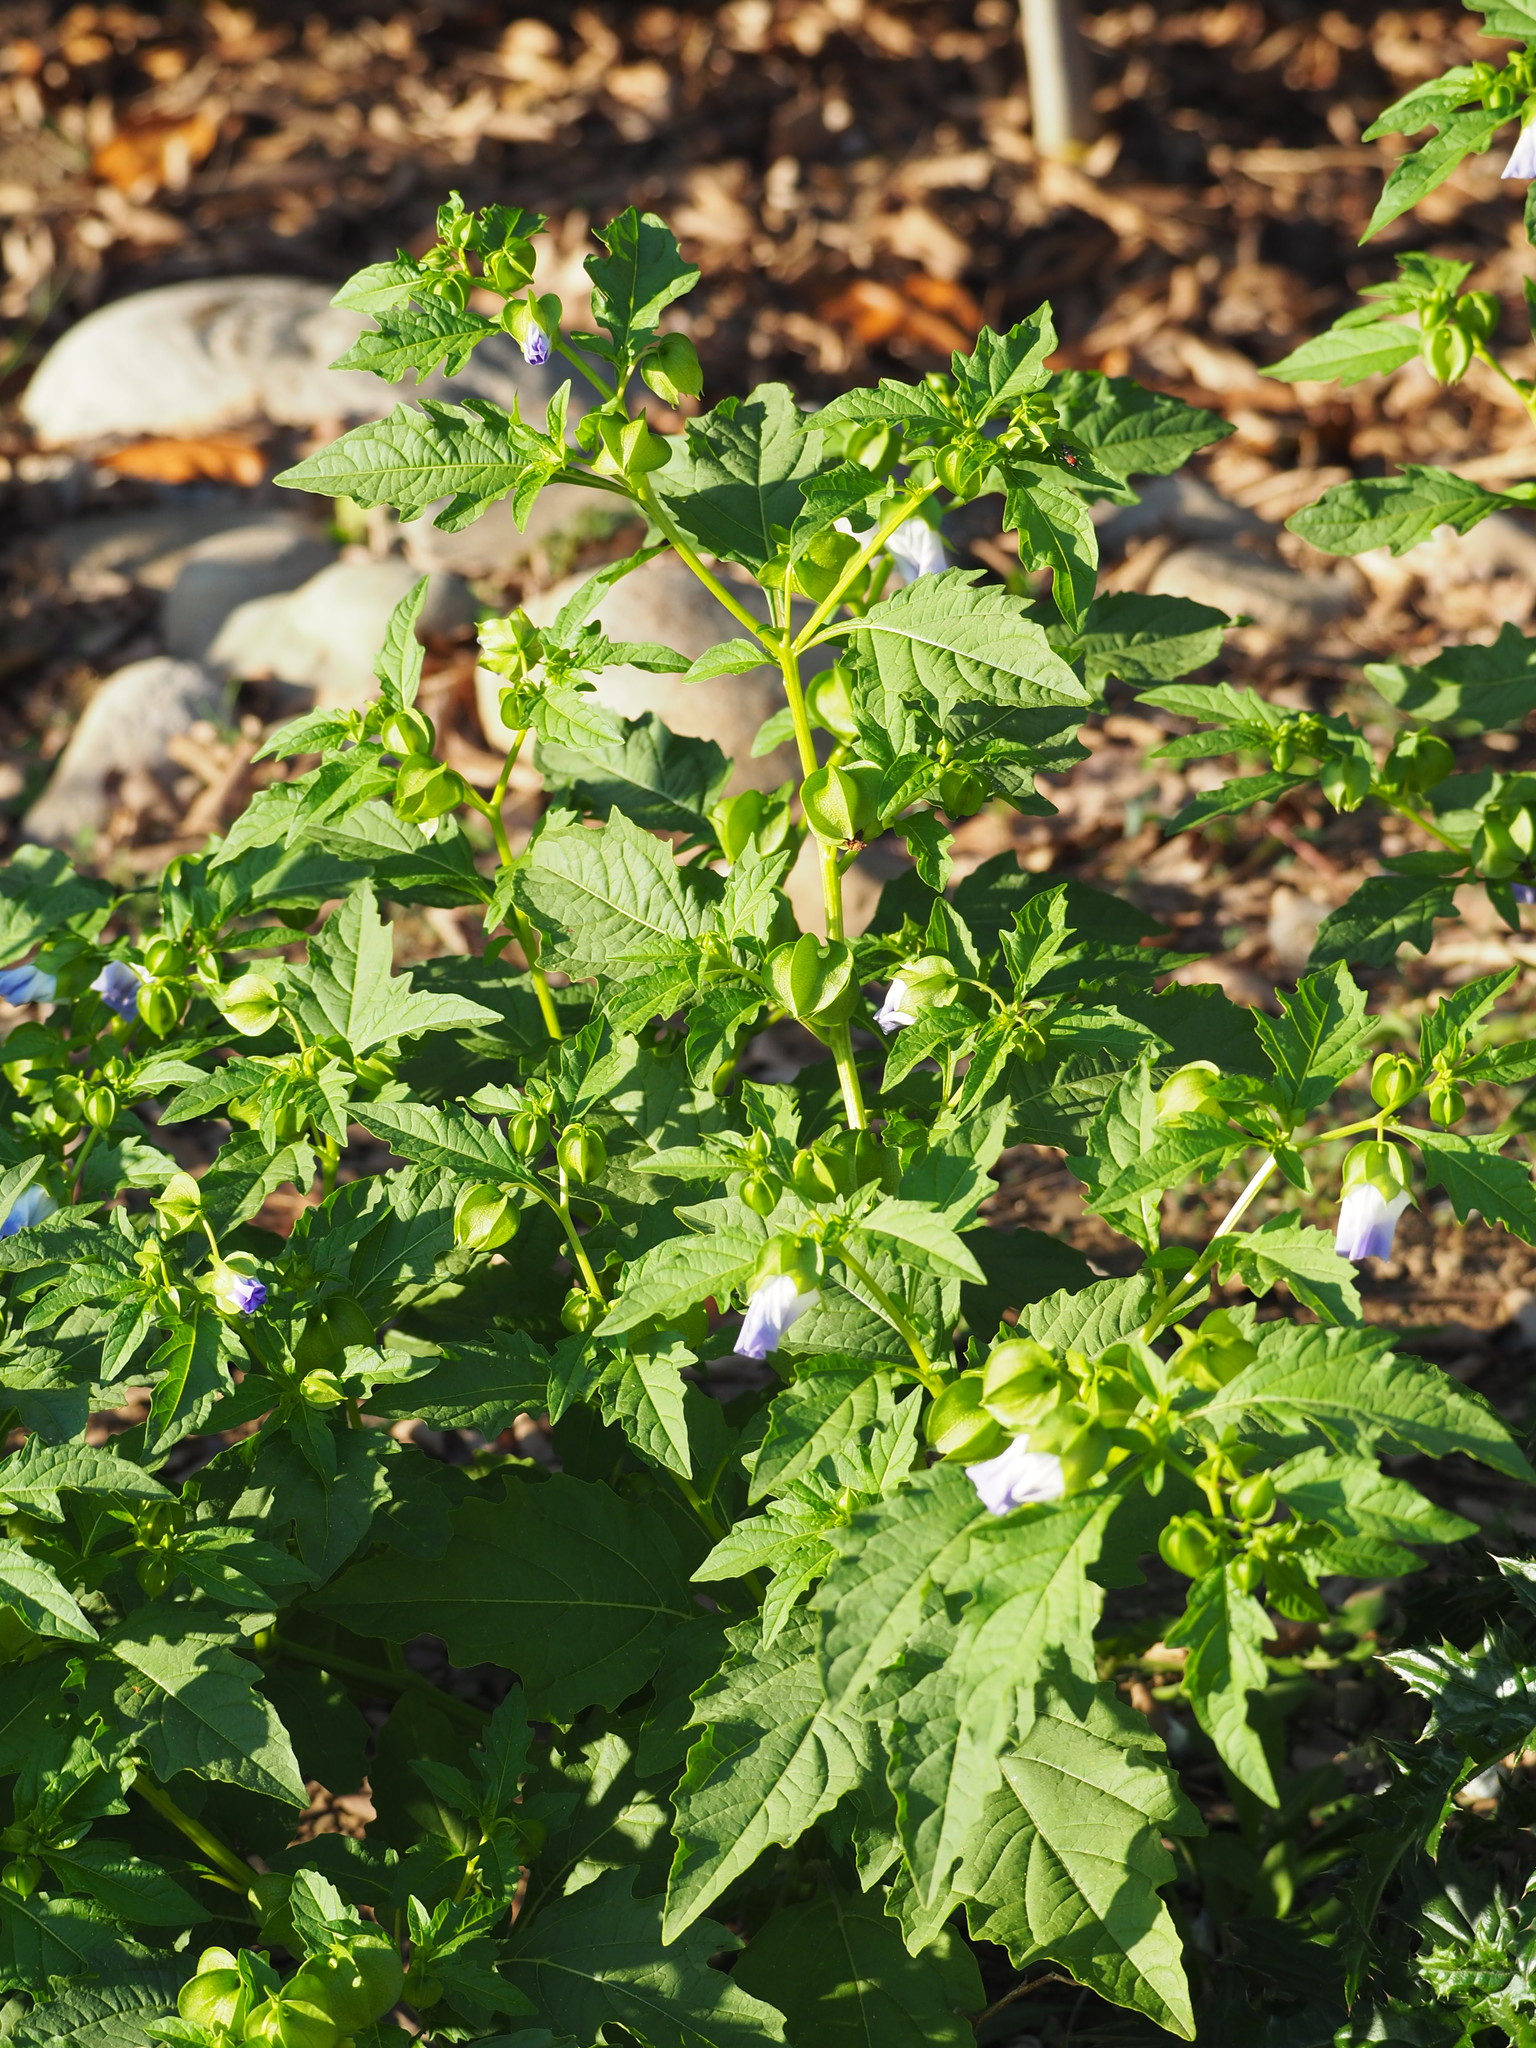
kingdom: Plantae
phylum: Tracheophyta
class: Magnoliopsida
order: Solanales
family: Solanaceae
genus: Nicandra
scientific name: Nicandra physalodes
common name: Apple-of-peru
